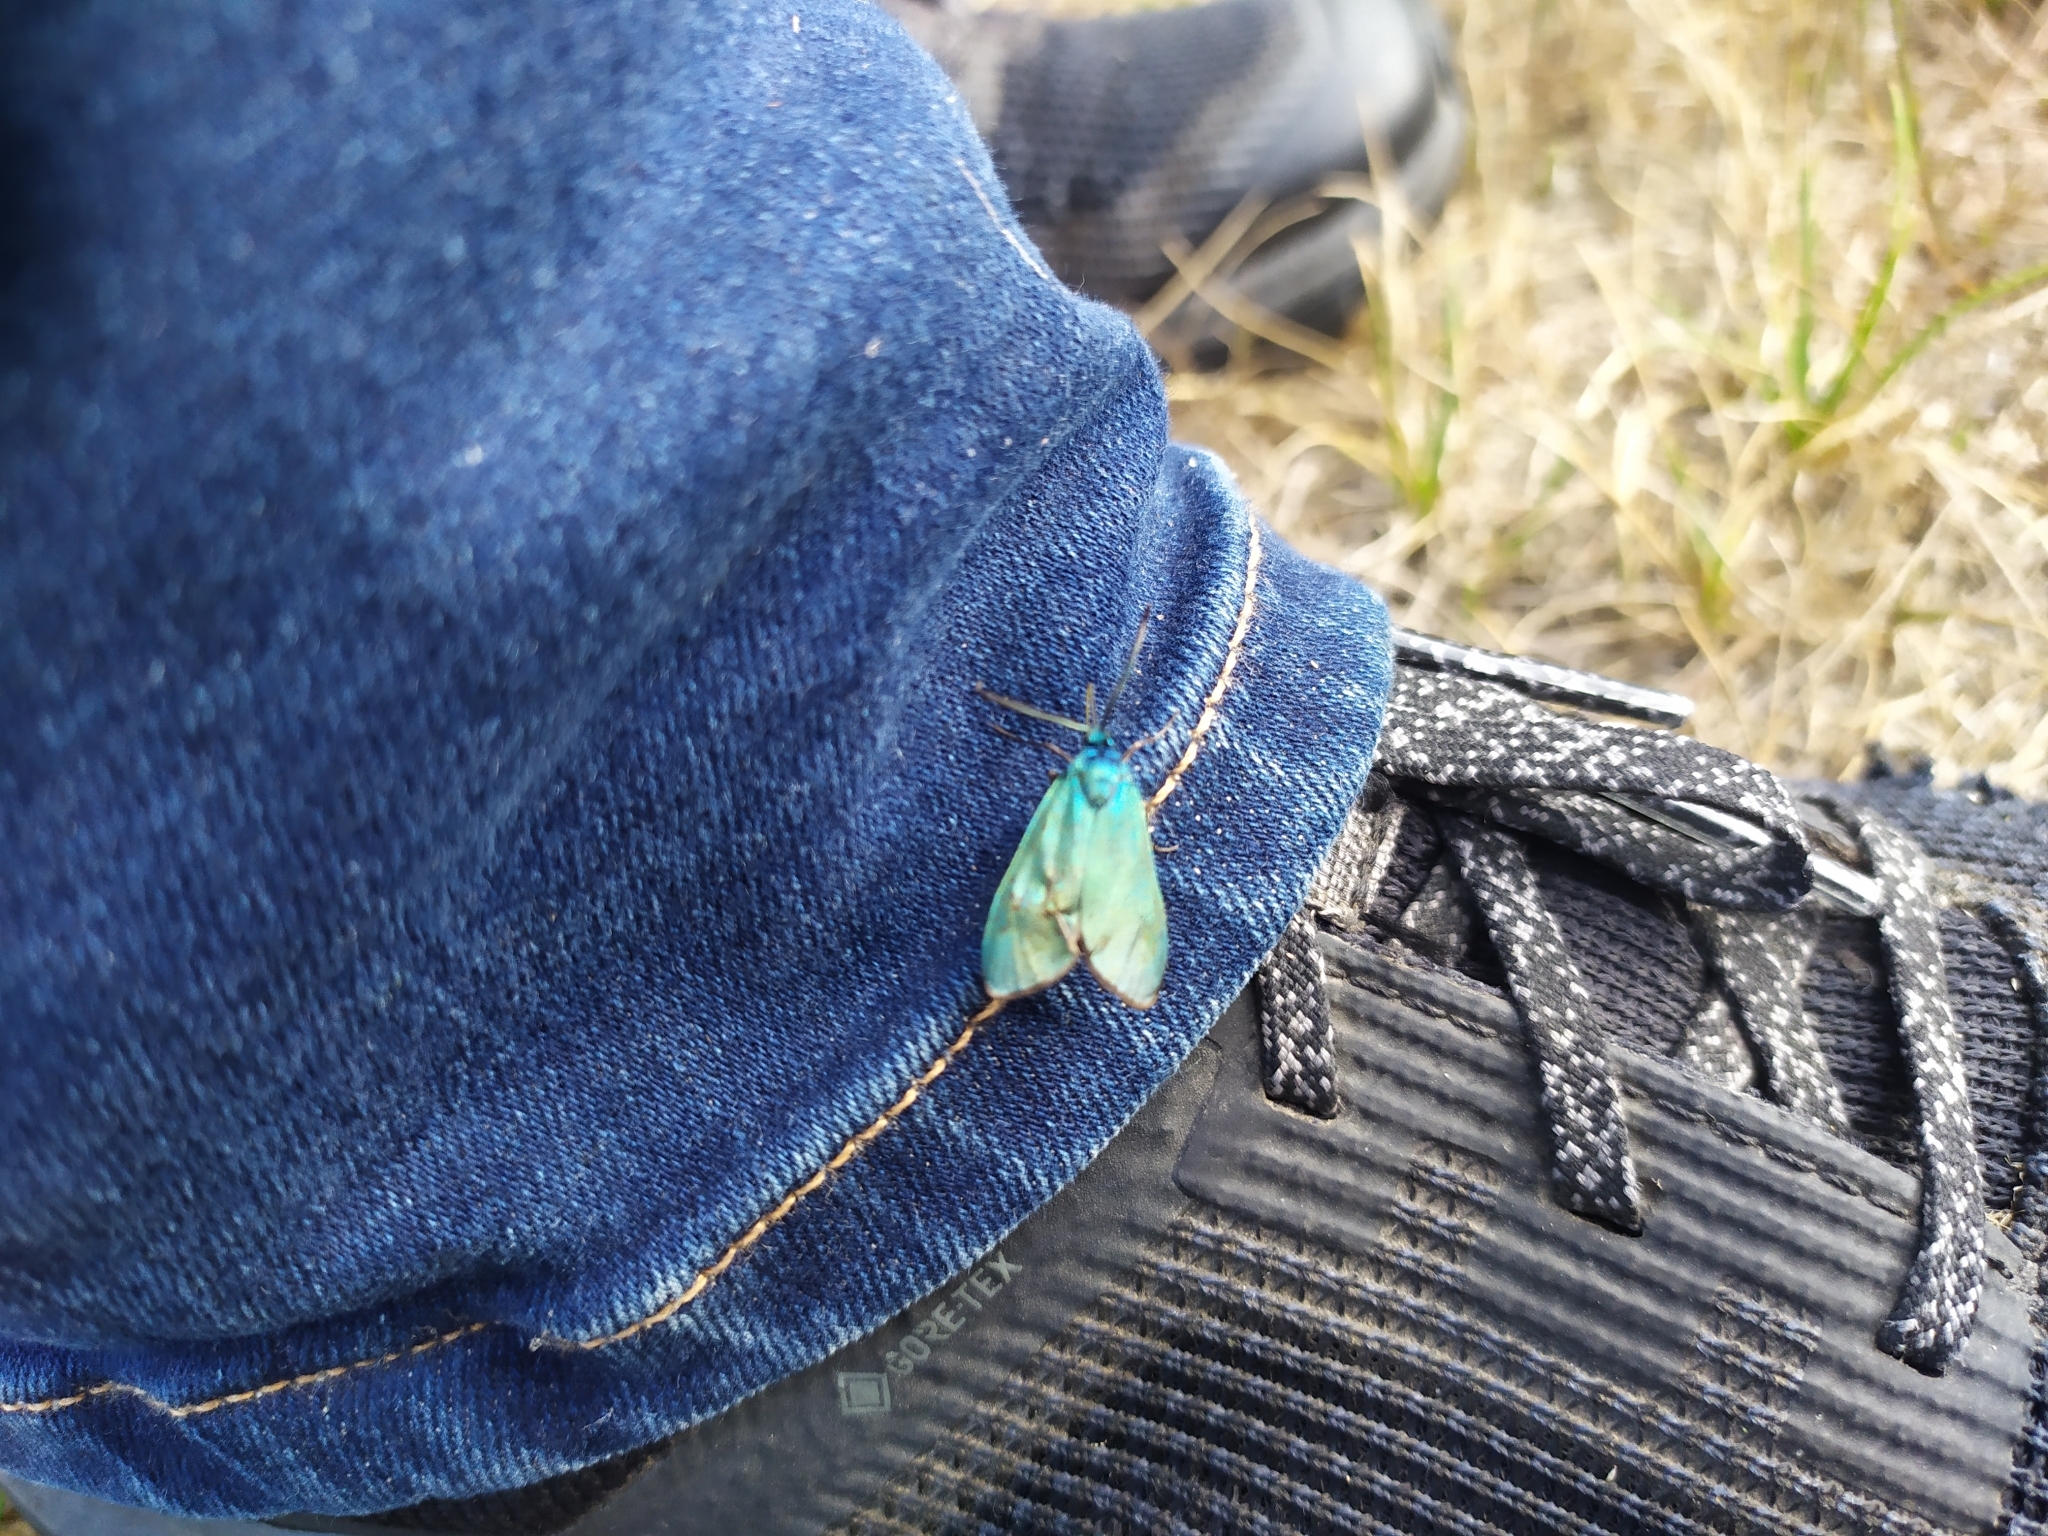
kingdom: Animalia
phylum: Arthropoda
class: Insecta
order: Lepidoptera
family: Zygaenidae
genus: Adscita
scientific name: Adscita statices
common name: Forester
